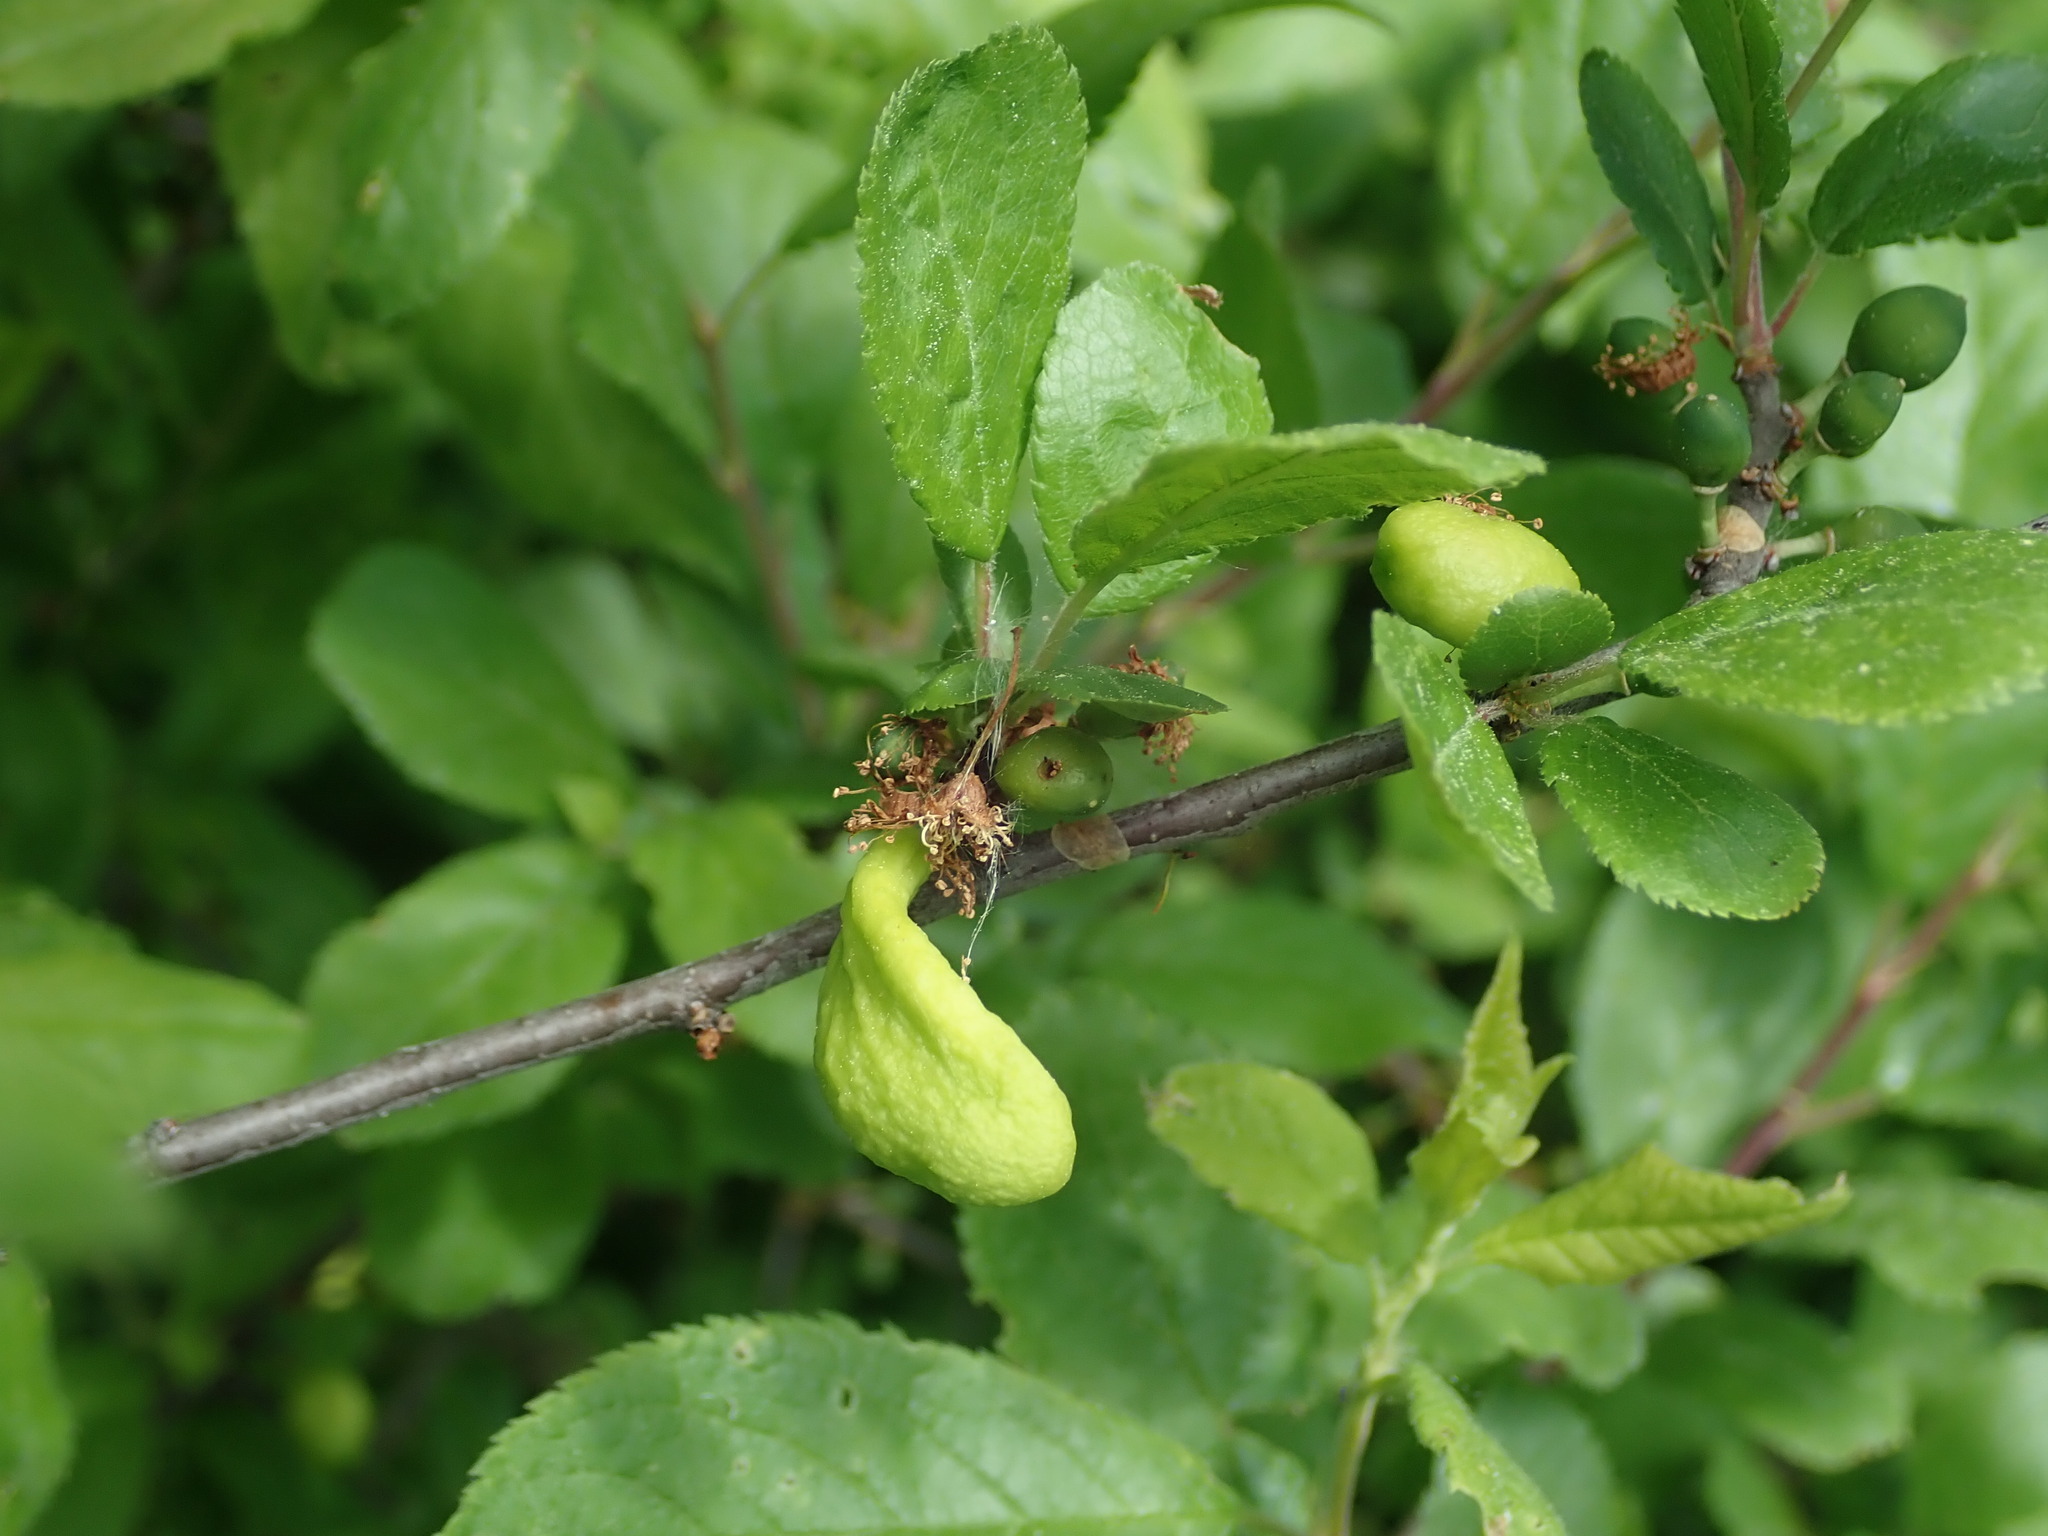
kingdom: Fungi
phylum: Ascomycota
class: Taphrinomycetes
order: Taphrinales
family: Taphrinaceae
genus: Taphrina
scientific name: Taphrina pruni
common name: Pocket plum
